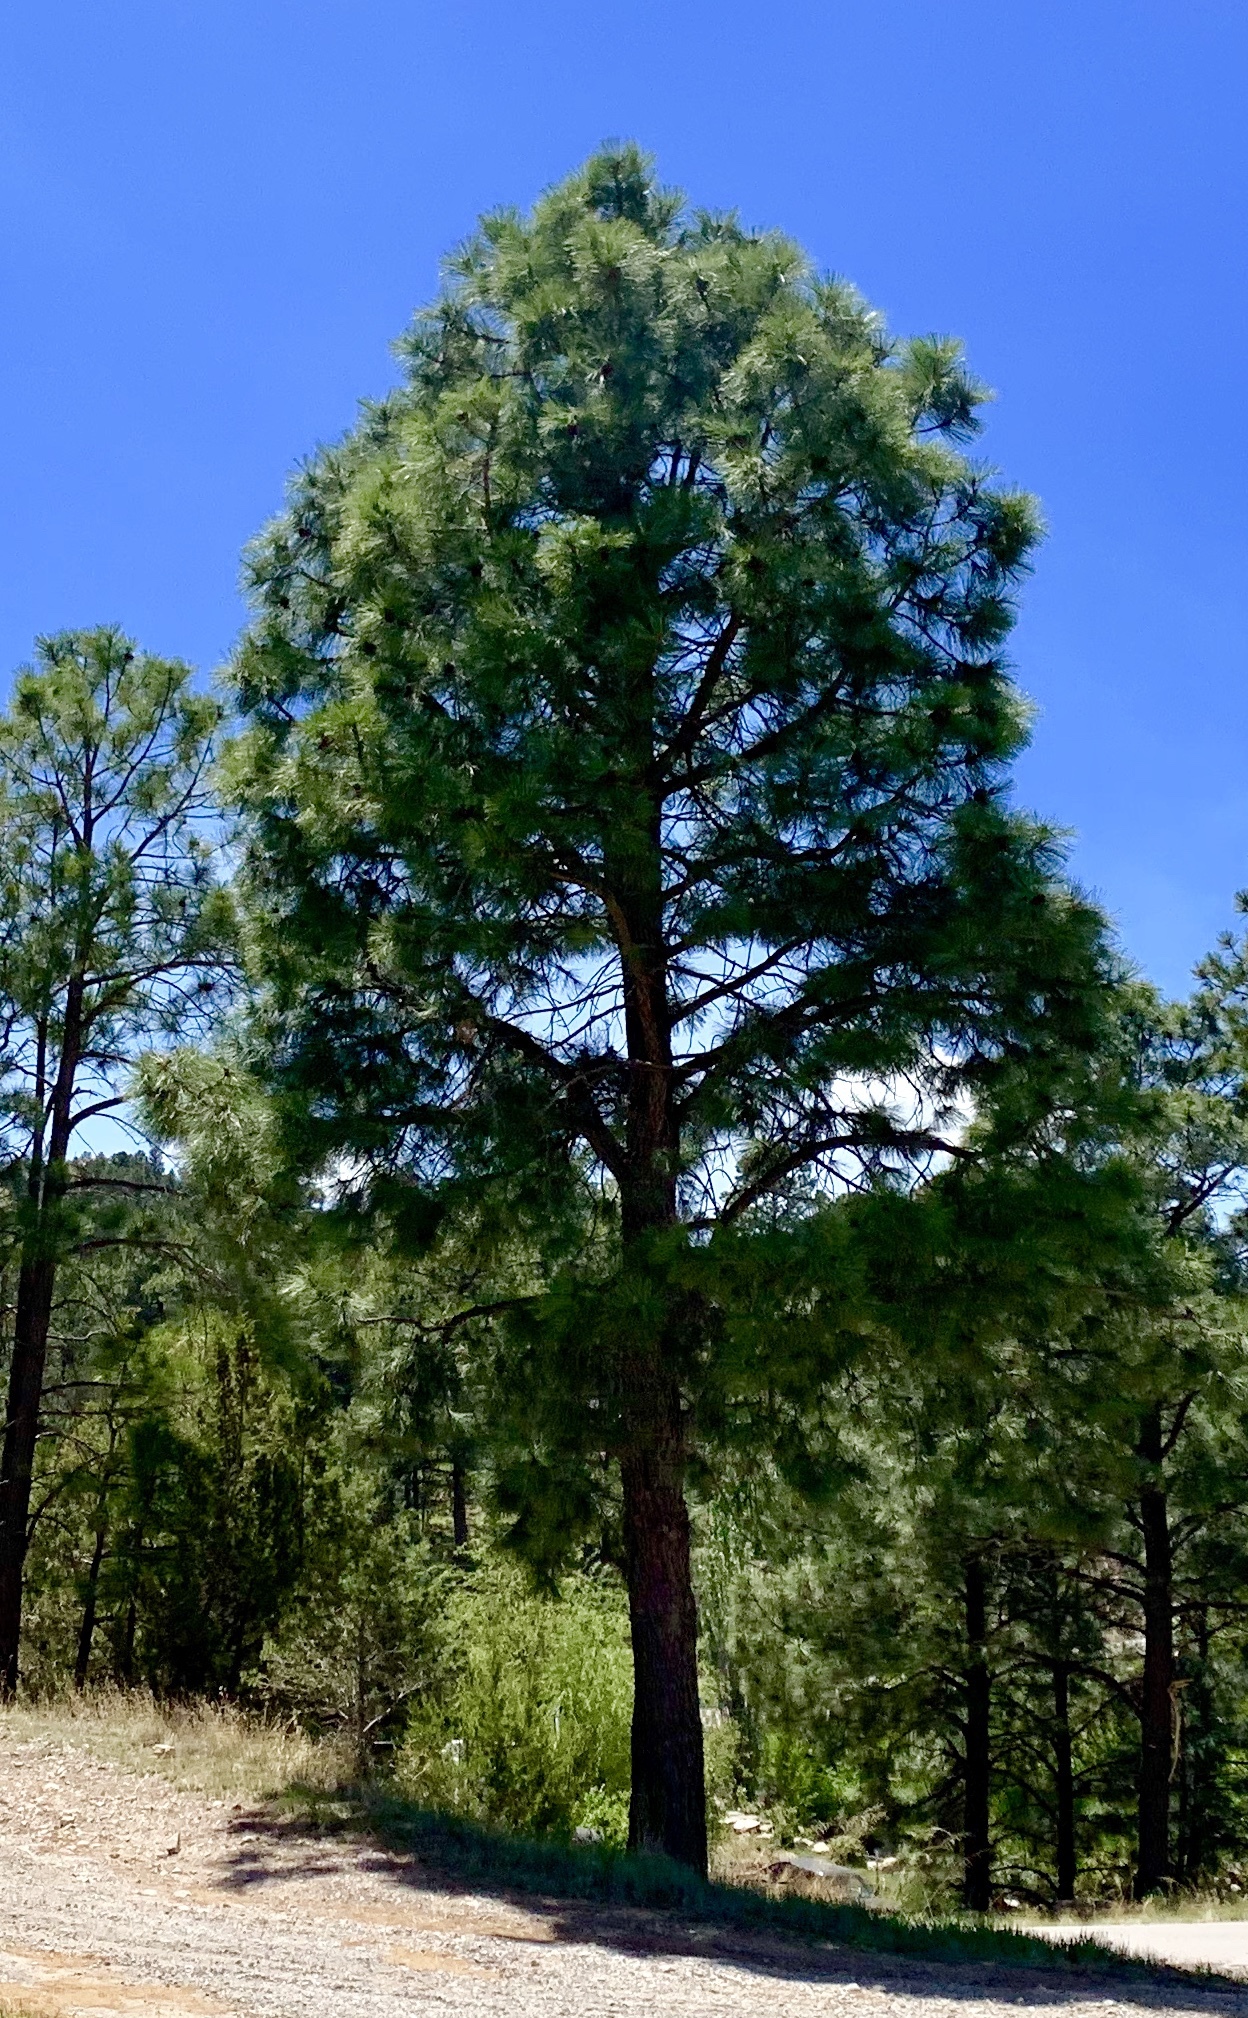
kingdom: Plantae
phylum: Tracheophyta
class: Pinopsida
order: Pinales
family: Pinaceae
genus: Pinus
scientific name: Pinus ponderosa
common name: Western yellow-pine
